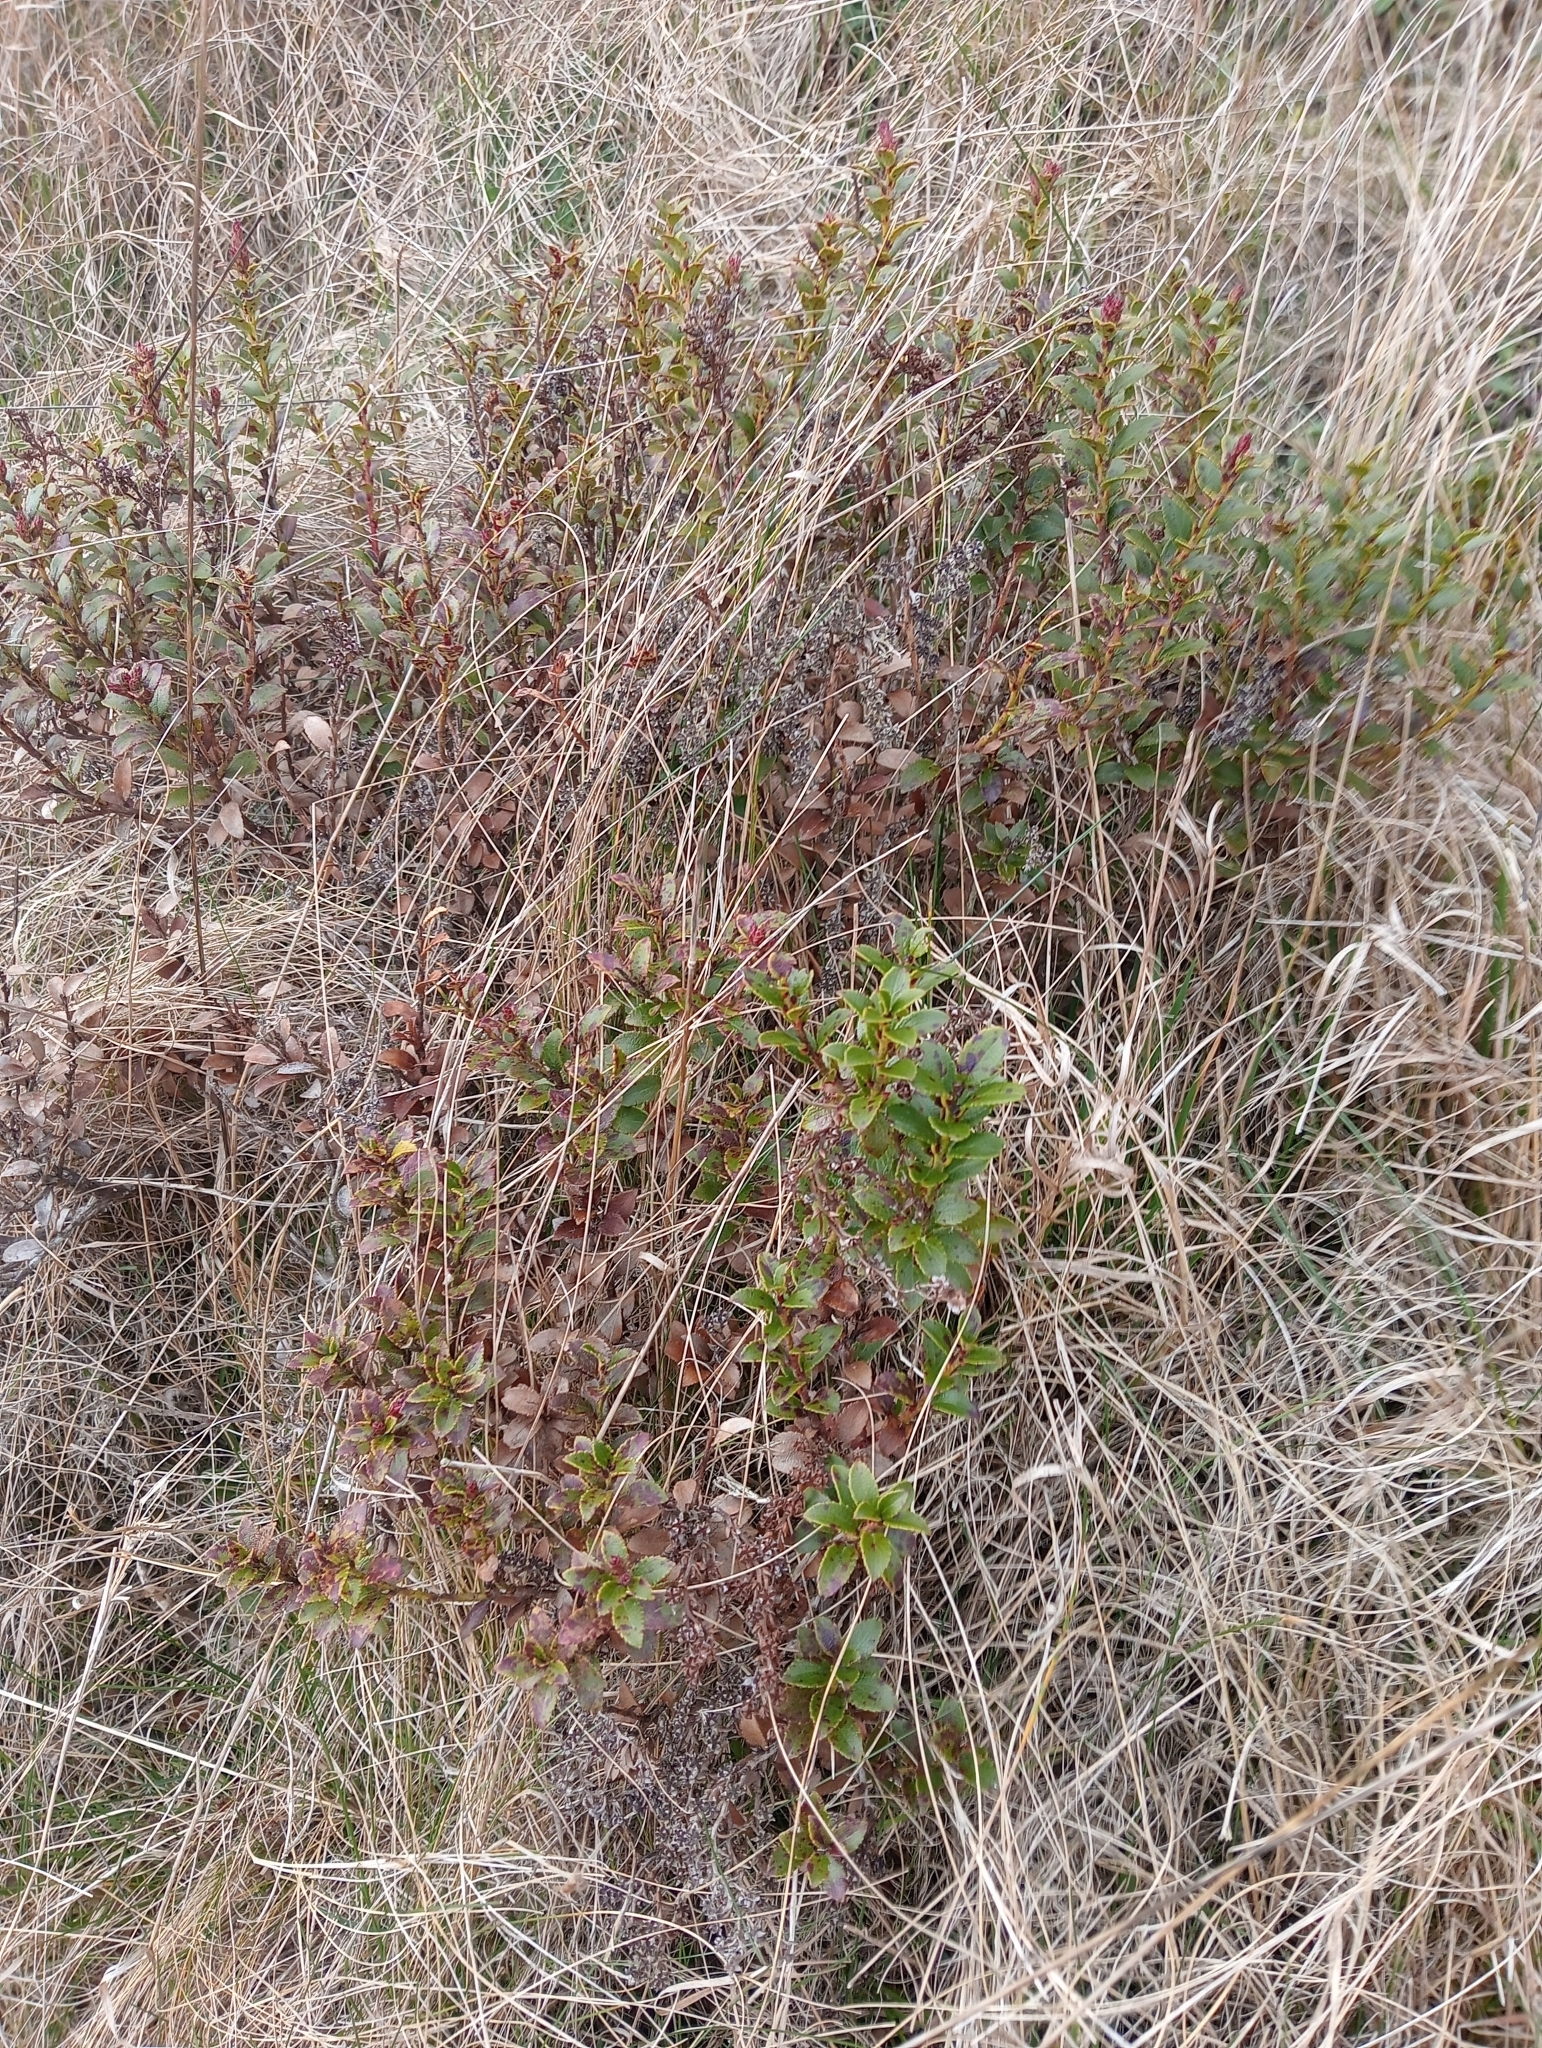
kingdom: Plantae
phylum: Tracheophyta
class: Magnoliopsida
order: Ericales
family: Ericaceae
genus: Gaultheria
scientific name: Gaultheria crassa
